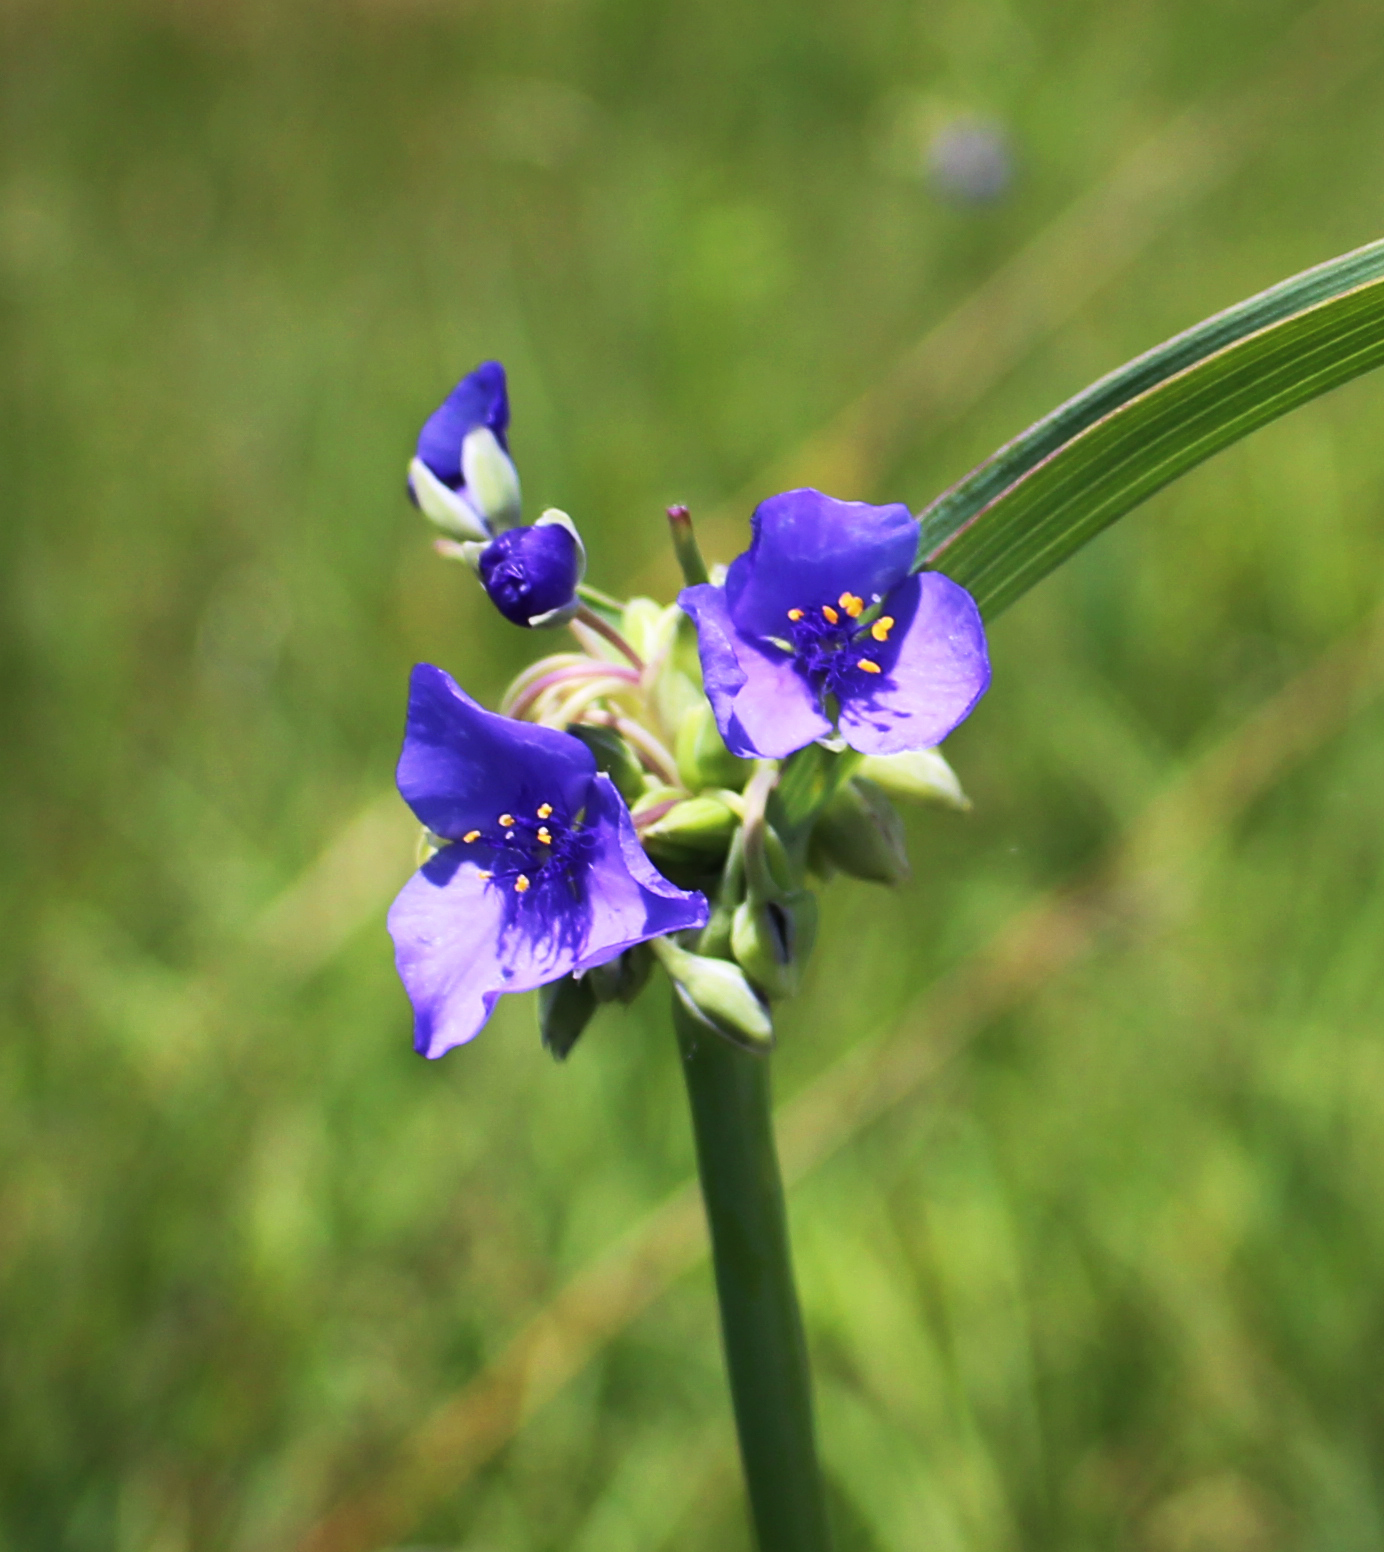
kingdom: Plantae
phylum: Tracheophyta
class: Liliopsida
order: Commelinales
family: Commelinaceae
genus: Tradescantia
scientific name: Tradescantia ohiensis
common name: Ohio spiderwort
